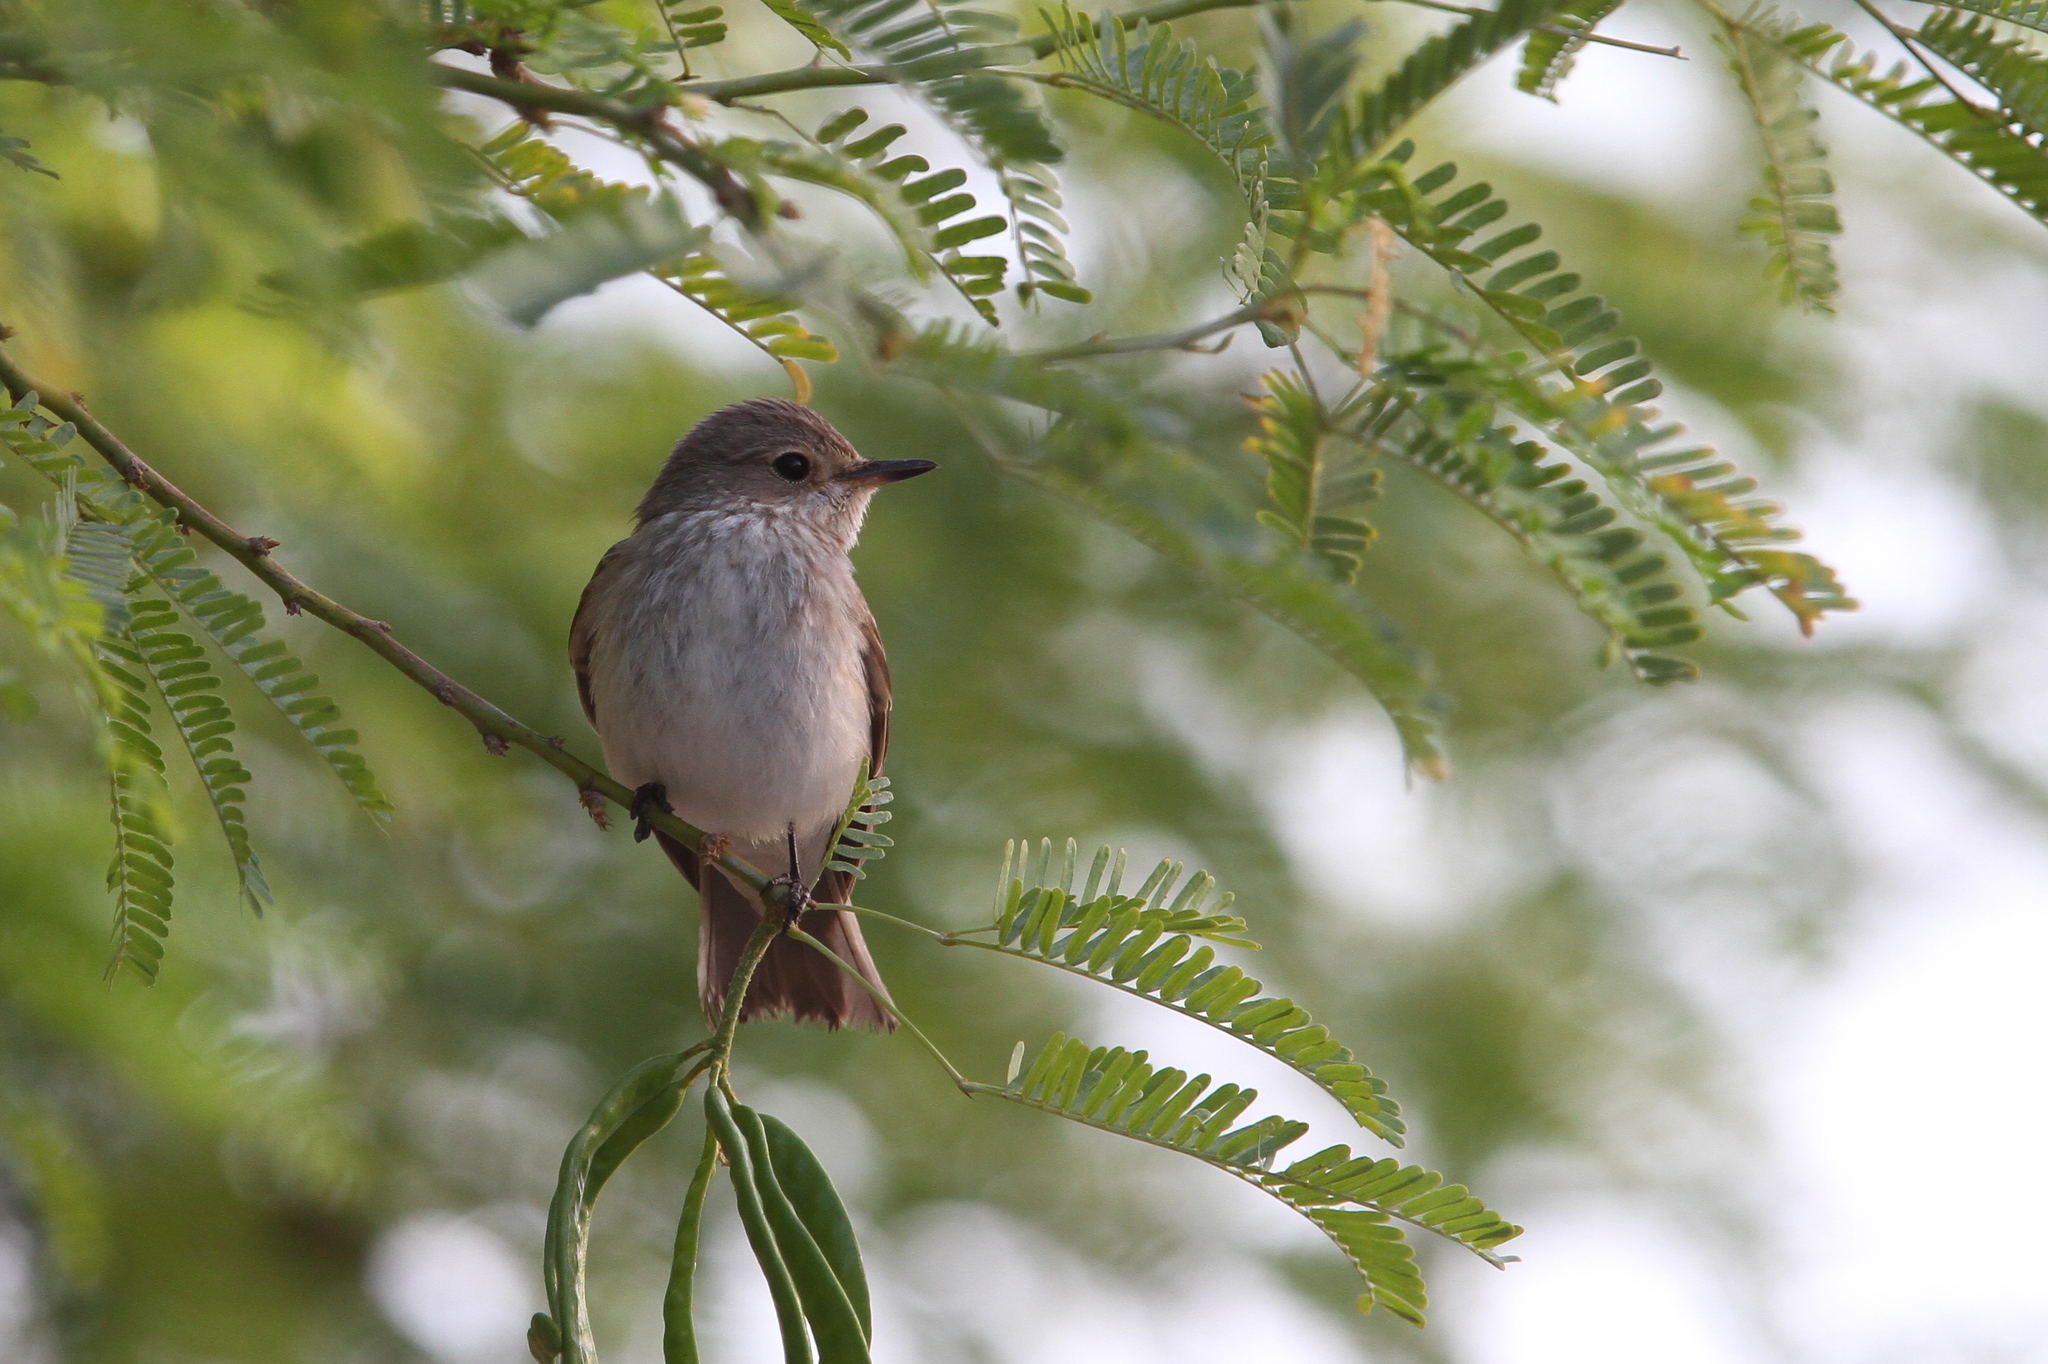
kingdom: Animalia
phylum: Chordata
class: Aves
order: Passeriformes
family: Muscicapidae
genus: Muscicapa
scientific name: Muscicapa striata
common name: Spotted flycatcher
